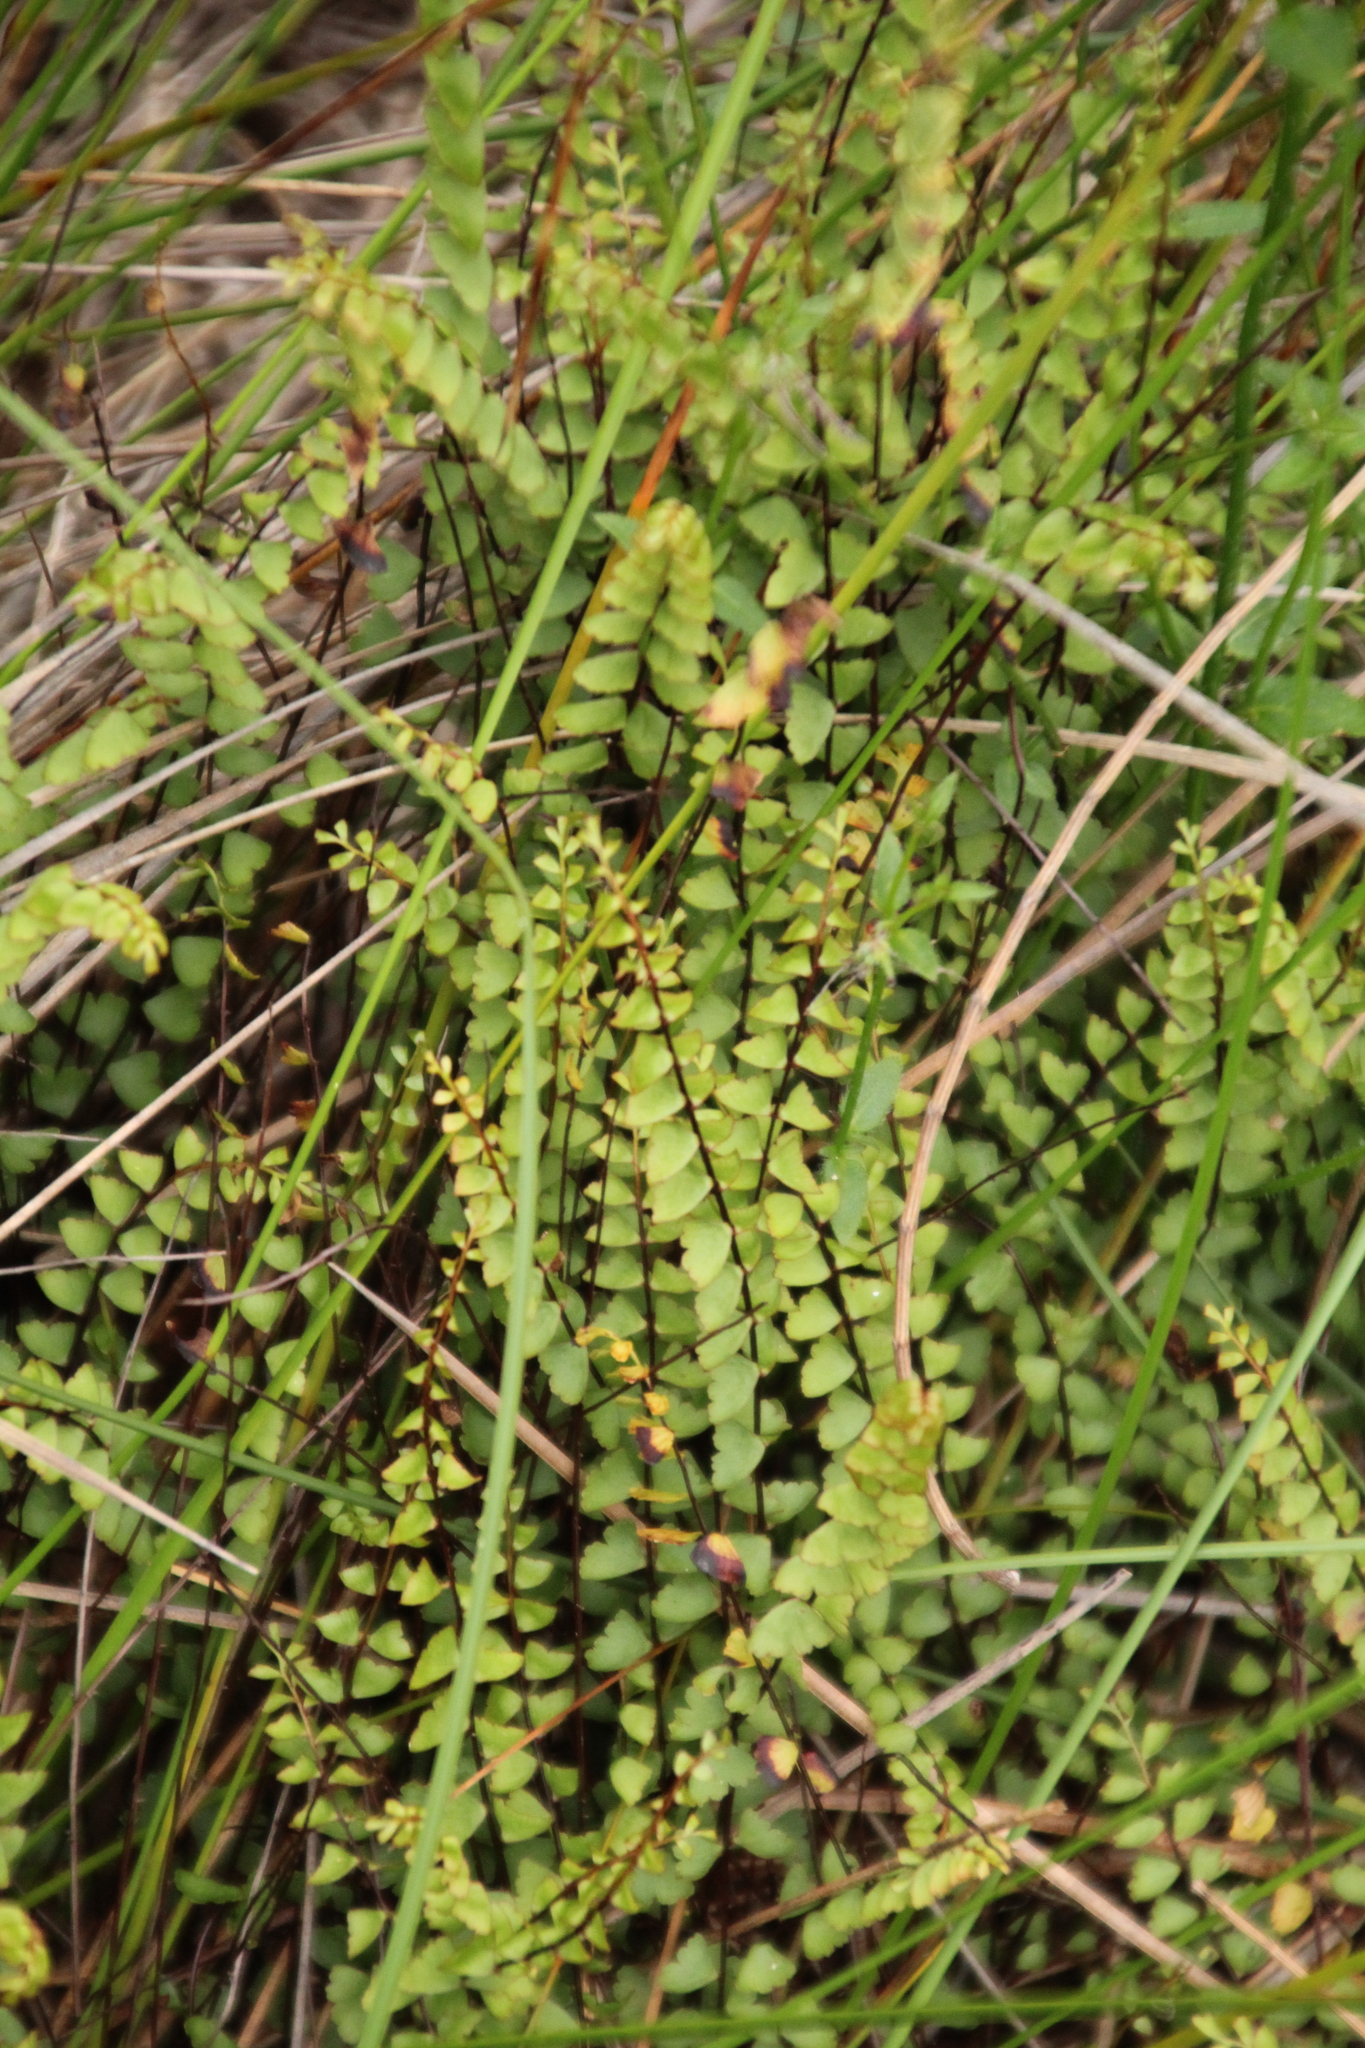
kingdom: Plantae
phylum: Tracheophyta
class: Polypodiopsida
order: Polypodiales
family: Lindsaeaceae
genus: Lindsaea
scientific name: Lindsaea linearis
